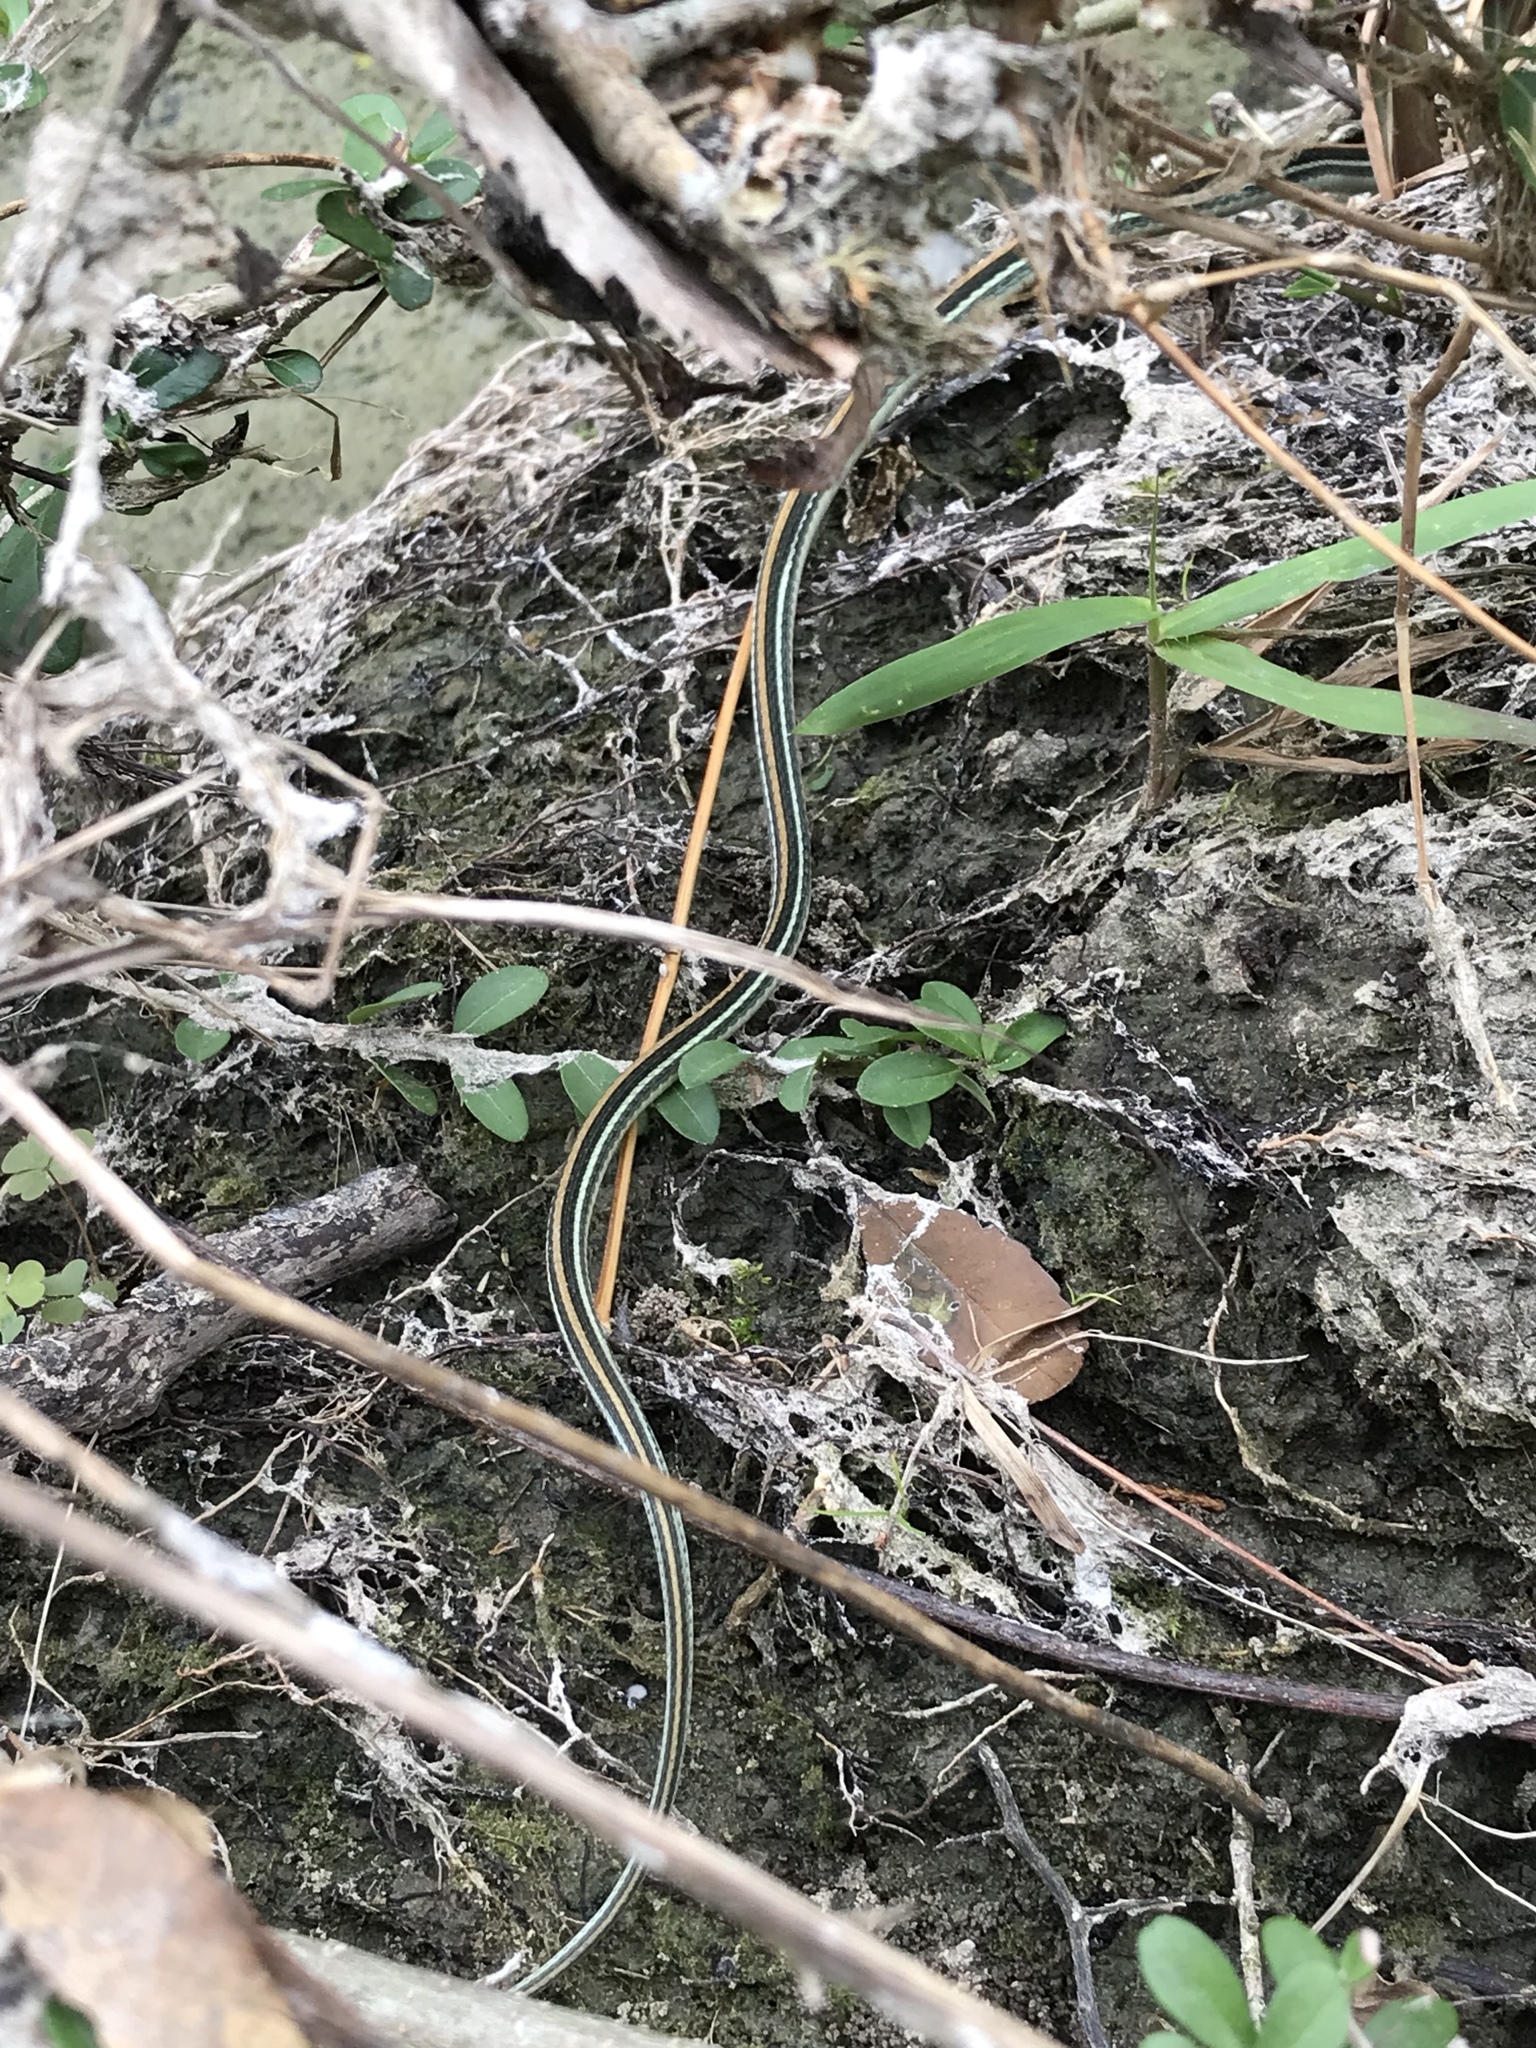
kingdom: Animalia
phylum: Chordata
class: Squamata
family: Colubridae
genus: Thamnophis
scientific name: Thamnophis proximus
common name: Western ribbon snake
